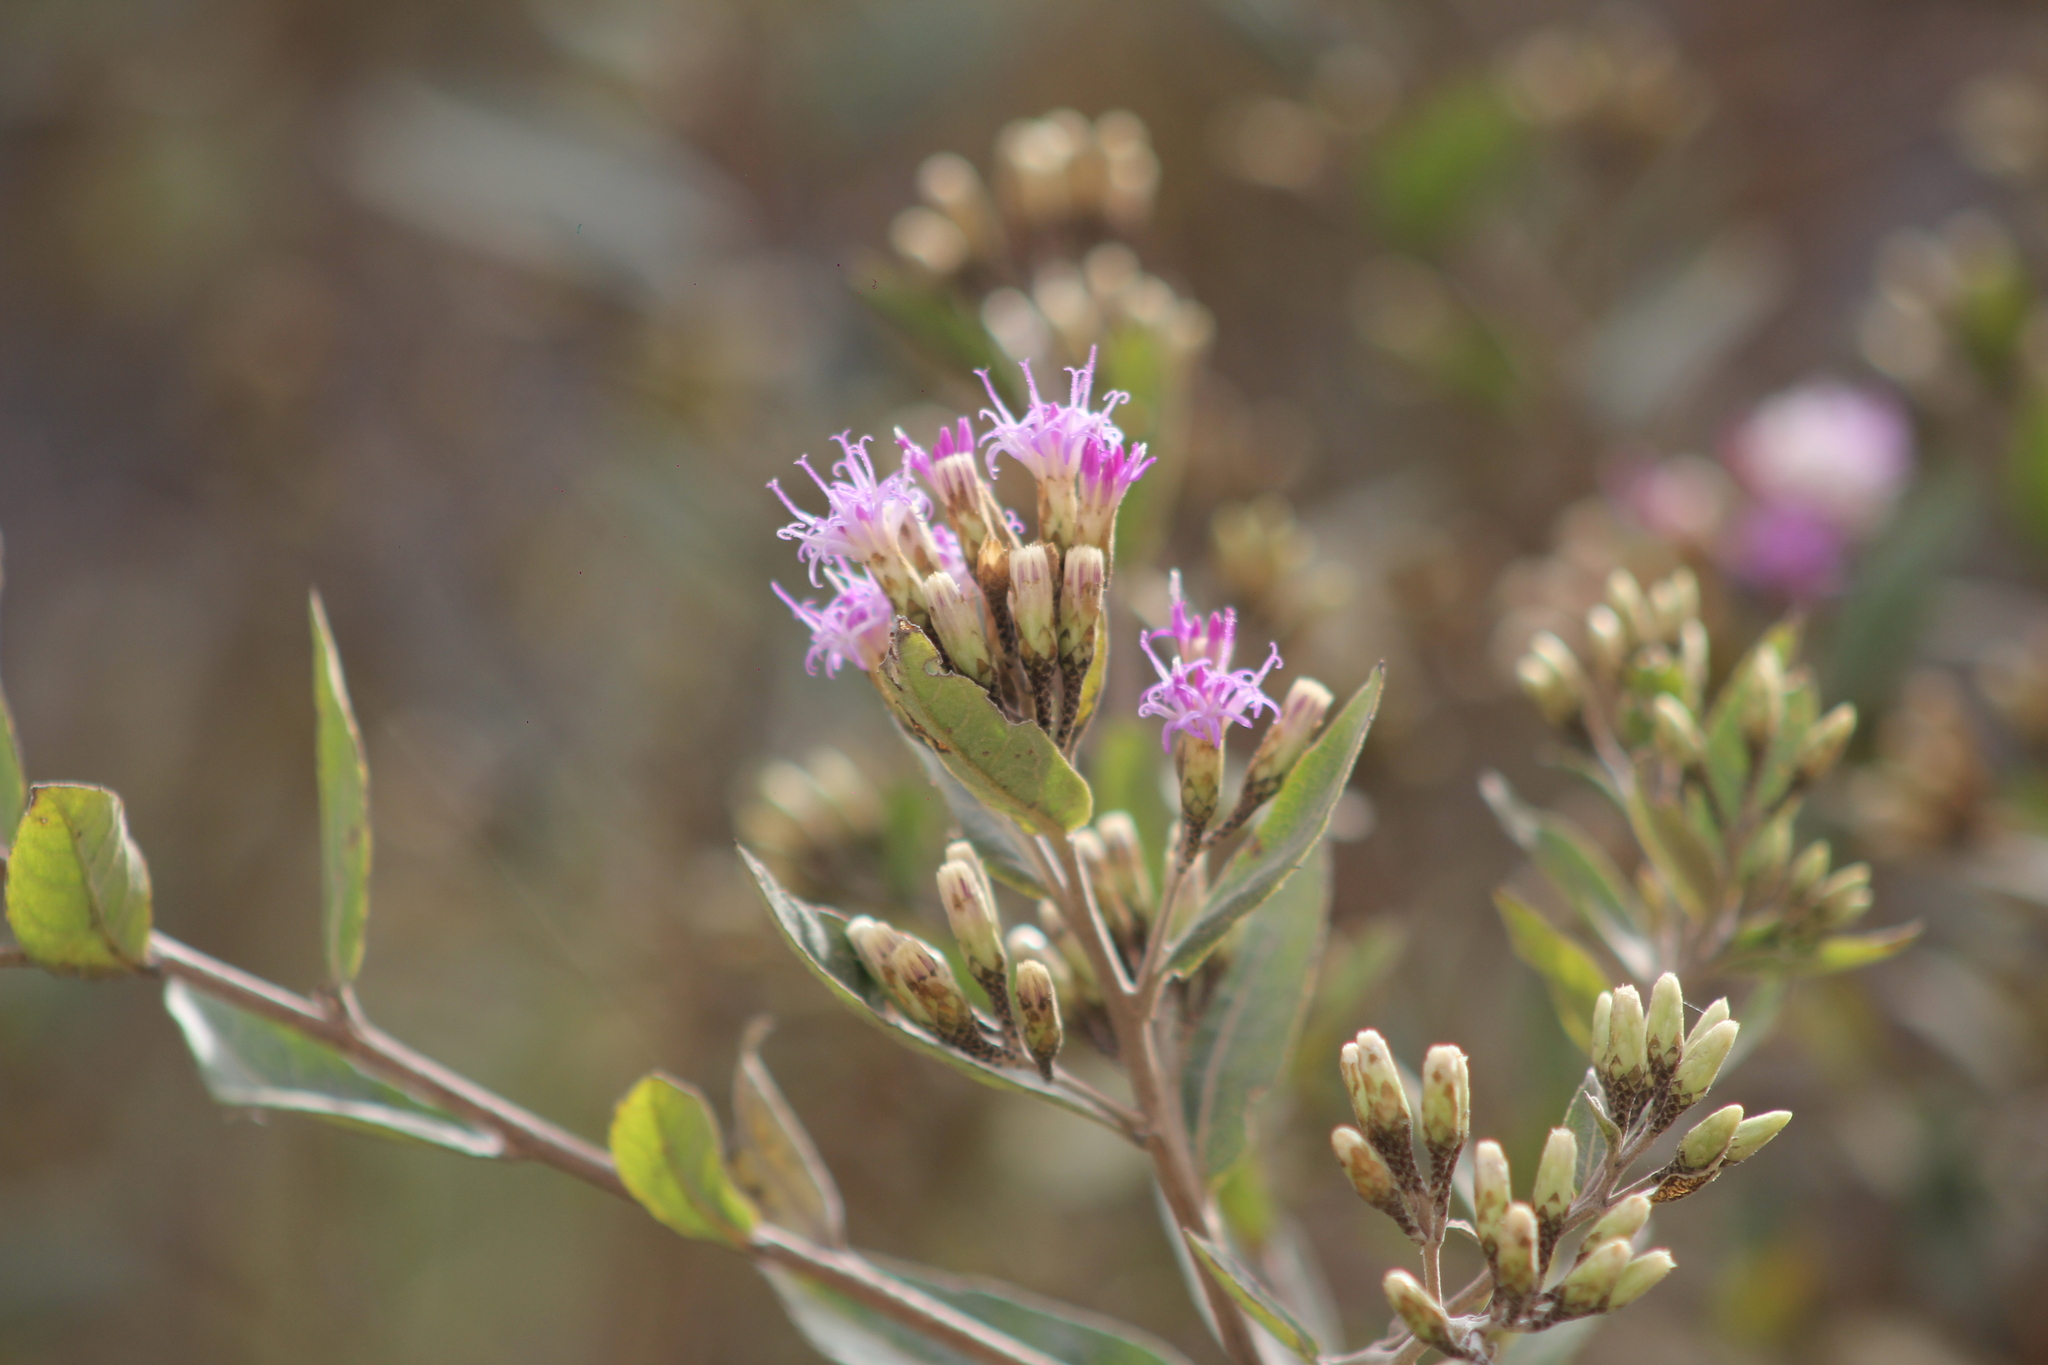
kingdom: Plantae
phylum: Tracheophyta
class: Magnoliopsida
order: Asterales
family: Asteraceae
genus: Vernonanthura
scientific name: Vernonanthura squamulosa
